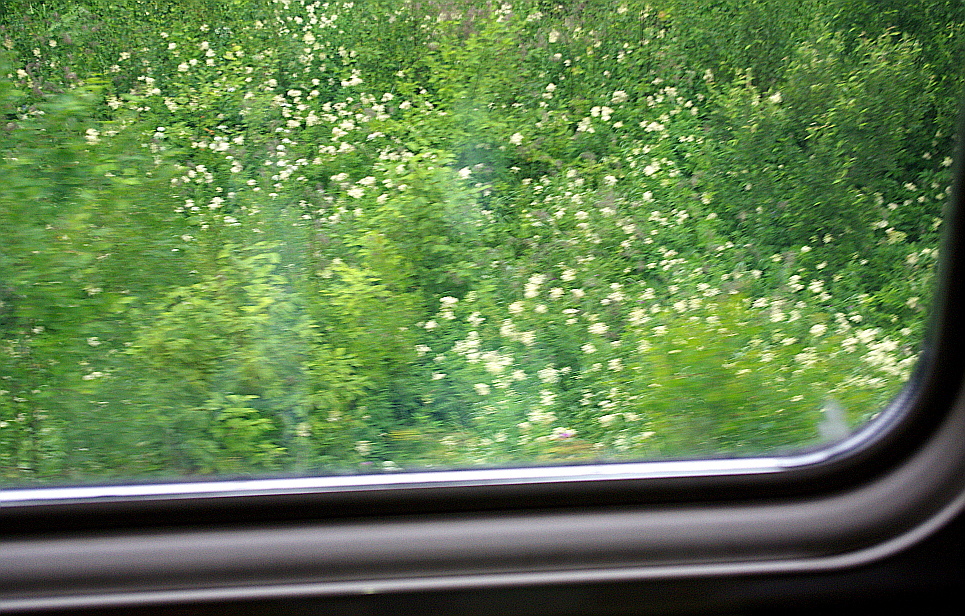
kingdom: Plantae
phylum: Tracheophyta
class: Magnoliopsida
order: Rosales
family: Rosaceae
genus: Filipendula
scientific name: Filipendula ulmaria
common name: Meadowsweet
